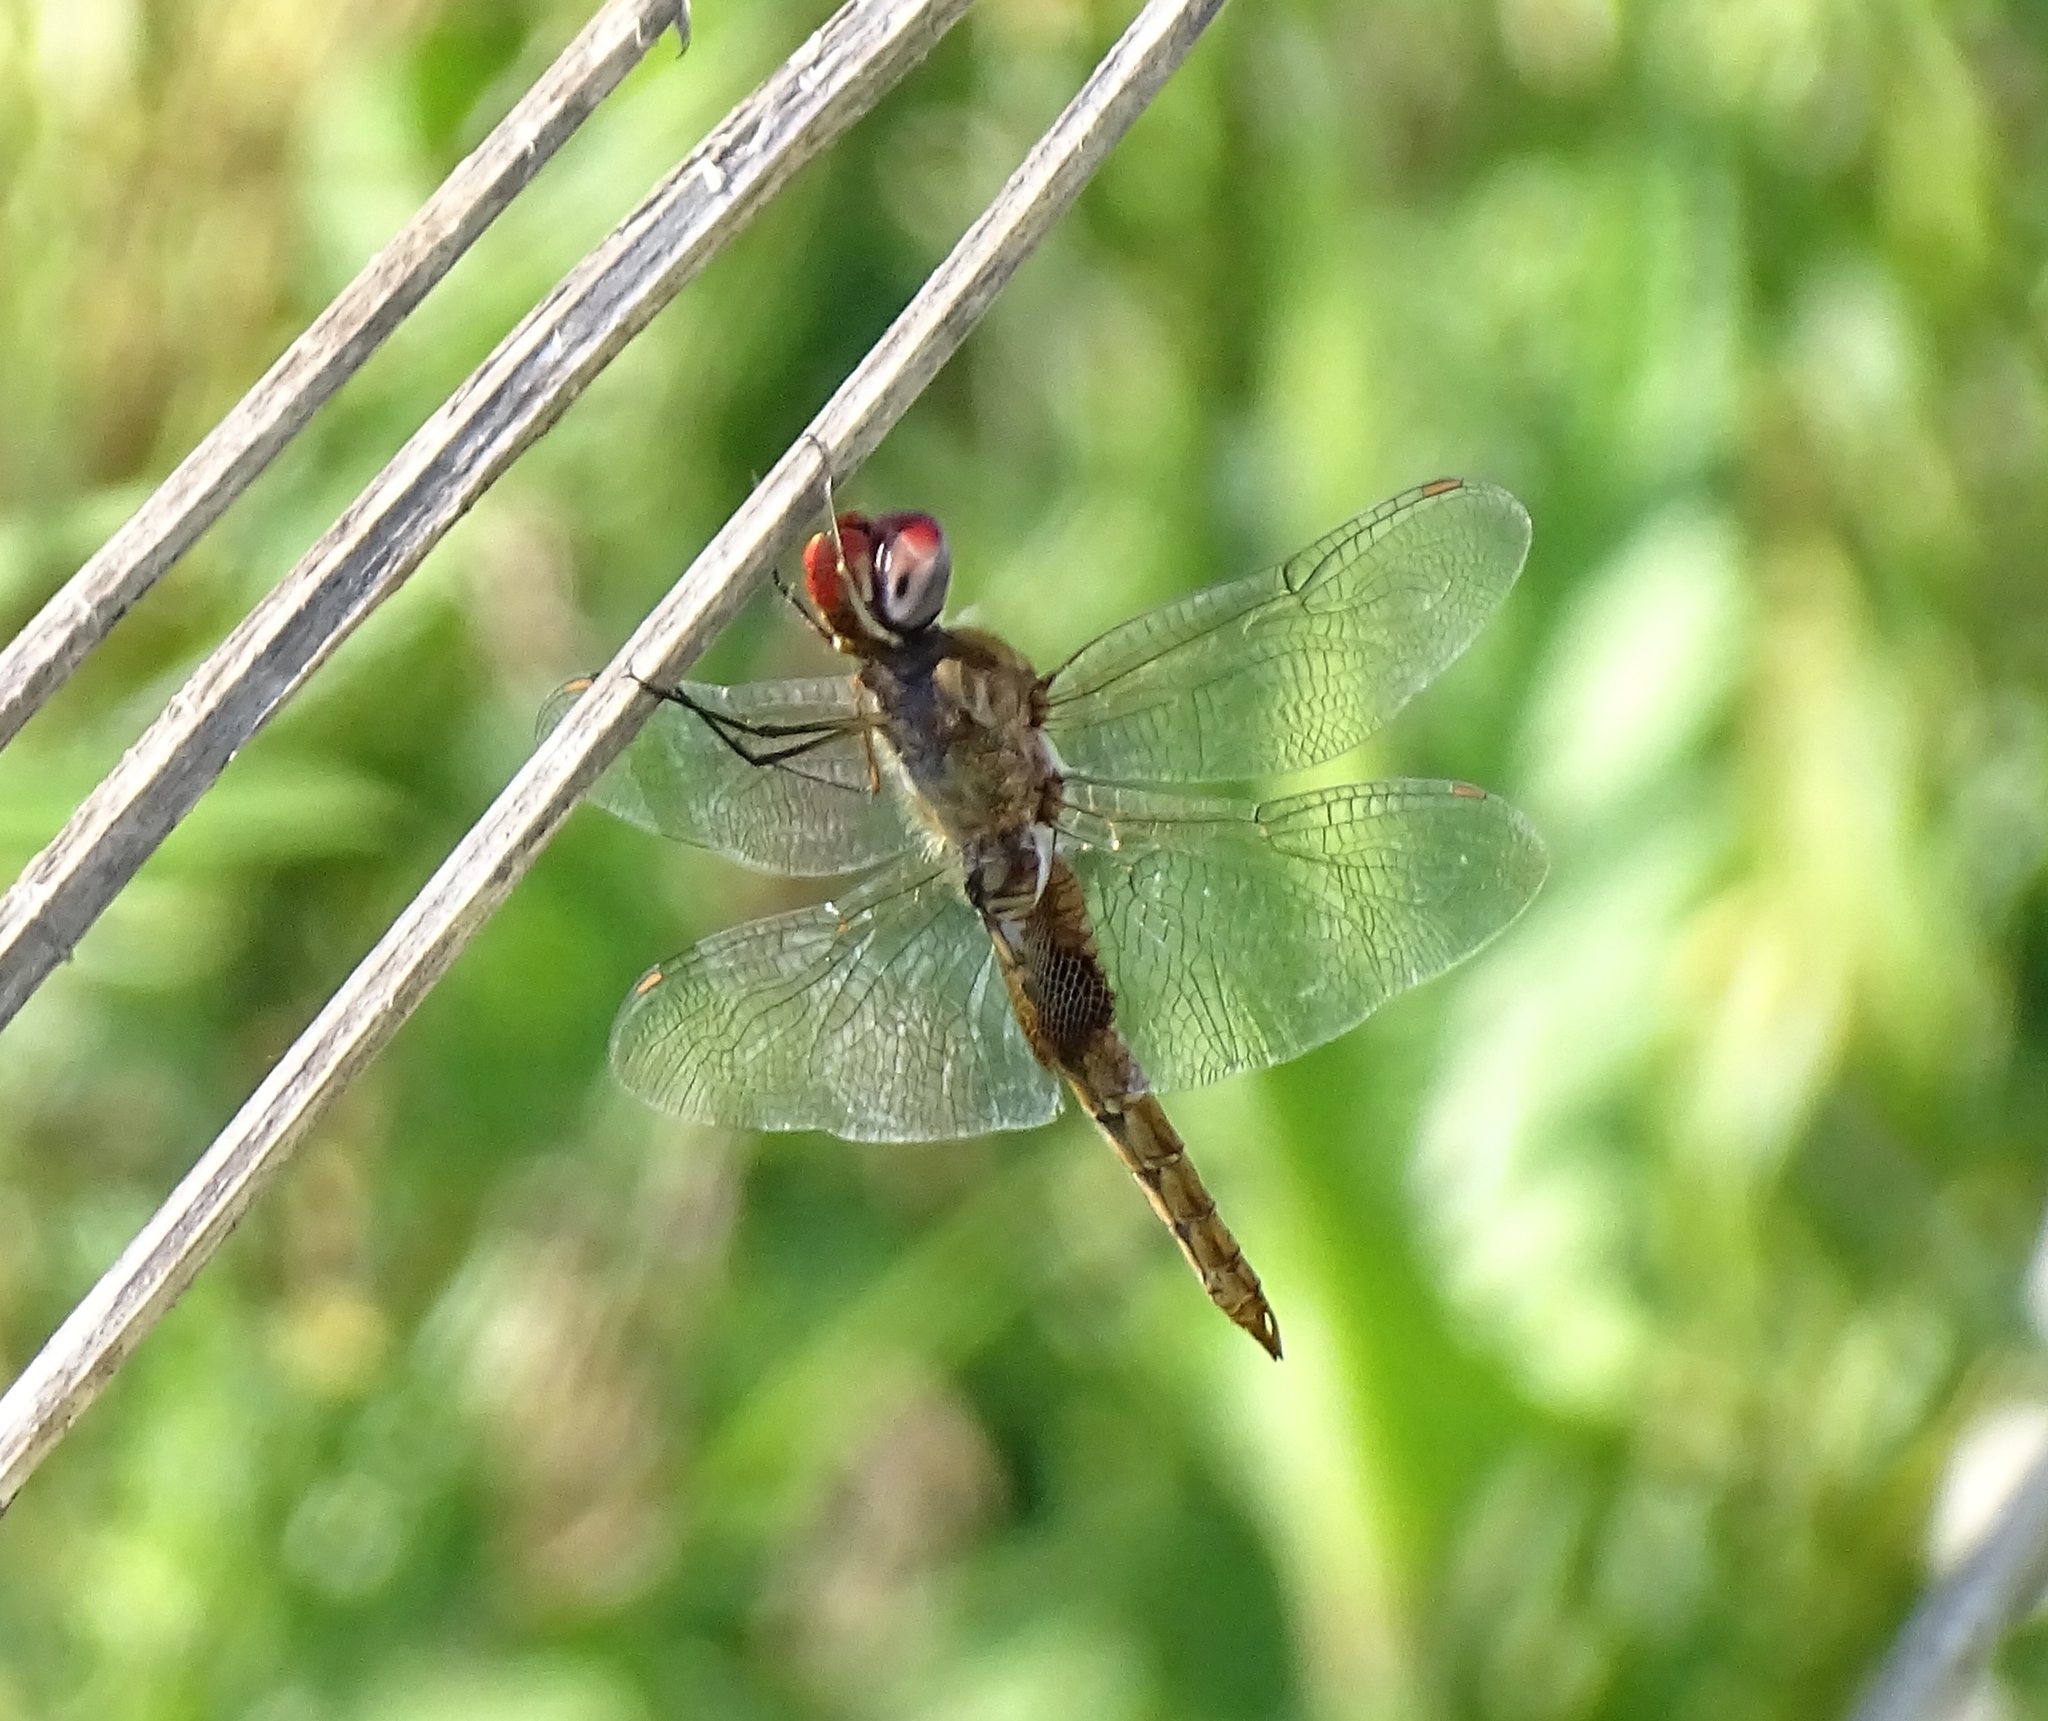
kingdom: Animalia
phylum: Arthropoda
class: Insecta
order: Odonata
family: Libellulidae
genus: Pantala
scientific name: Pantala hymenaea
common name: Spot-winged glider
